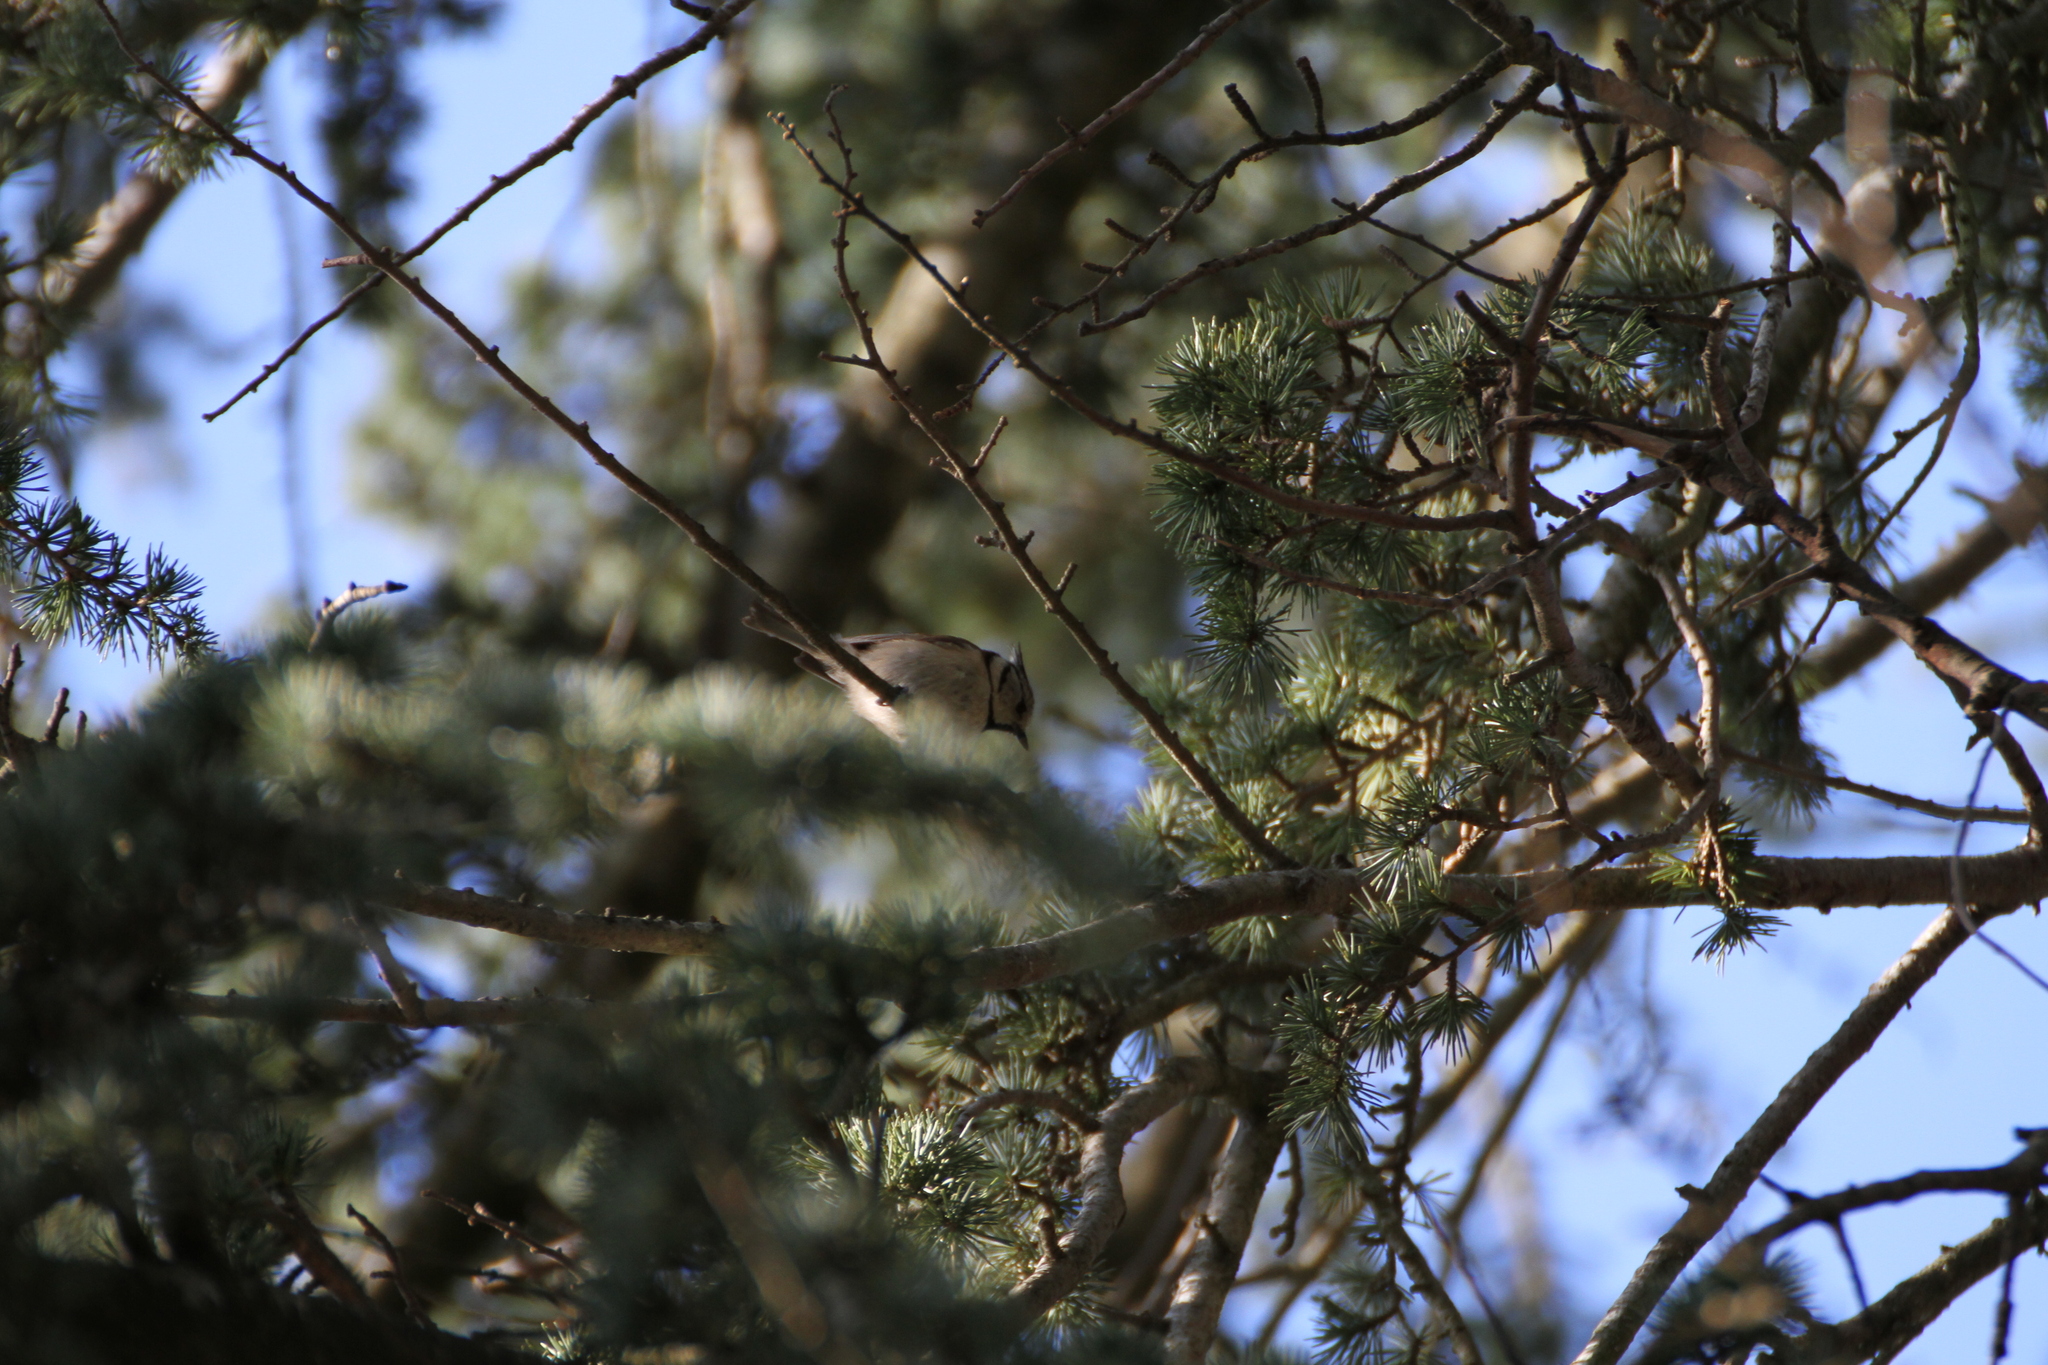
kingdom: Animalia
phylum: Chordata
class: Aves
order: Passeriformes
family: Paridae
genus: Lophophanes
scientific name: Lophophanes cristatus
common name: European crested tit
